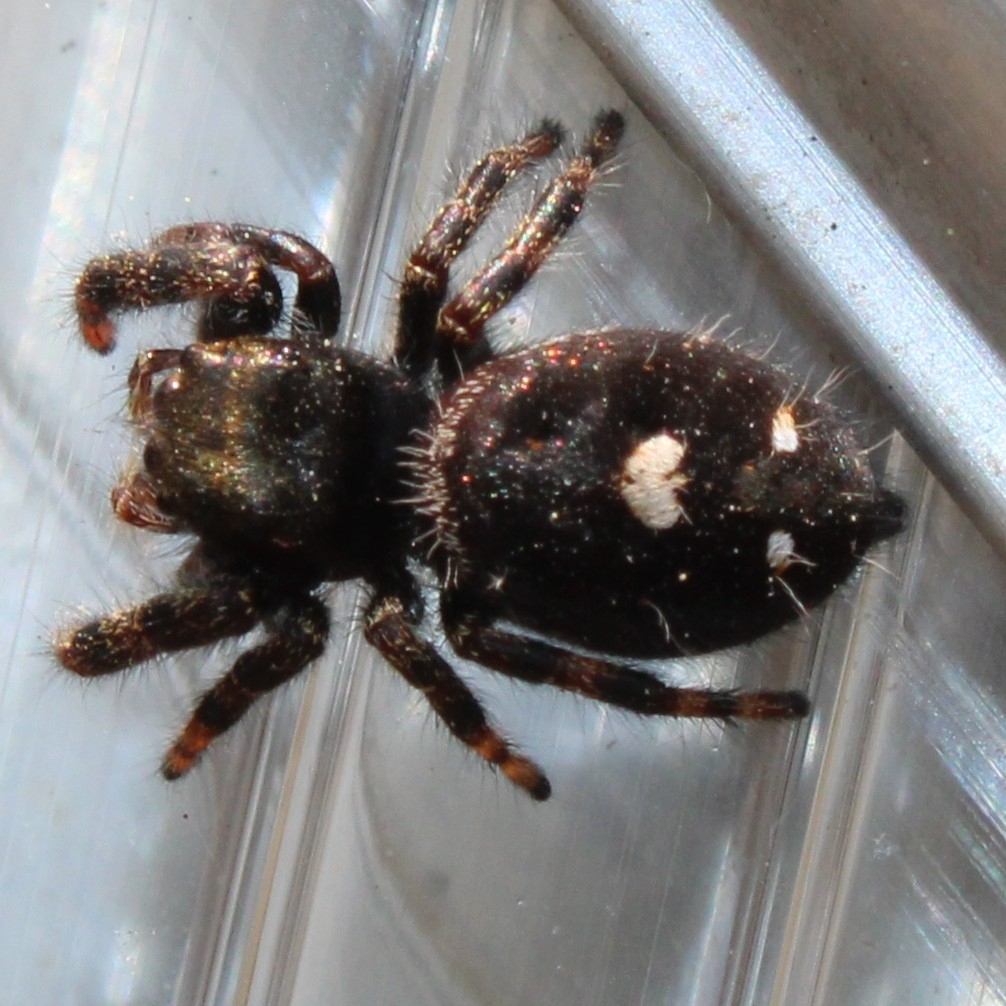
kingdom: Animalia
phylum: Arthropoda
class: Arachnida
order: Araneae
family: Salticidae
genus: Phidippus
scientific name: Phidippus audax
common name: Bold jumper
